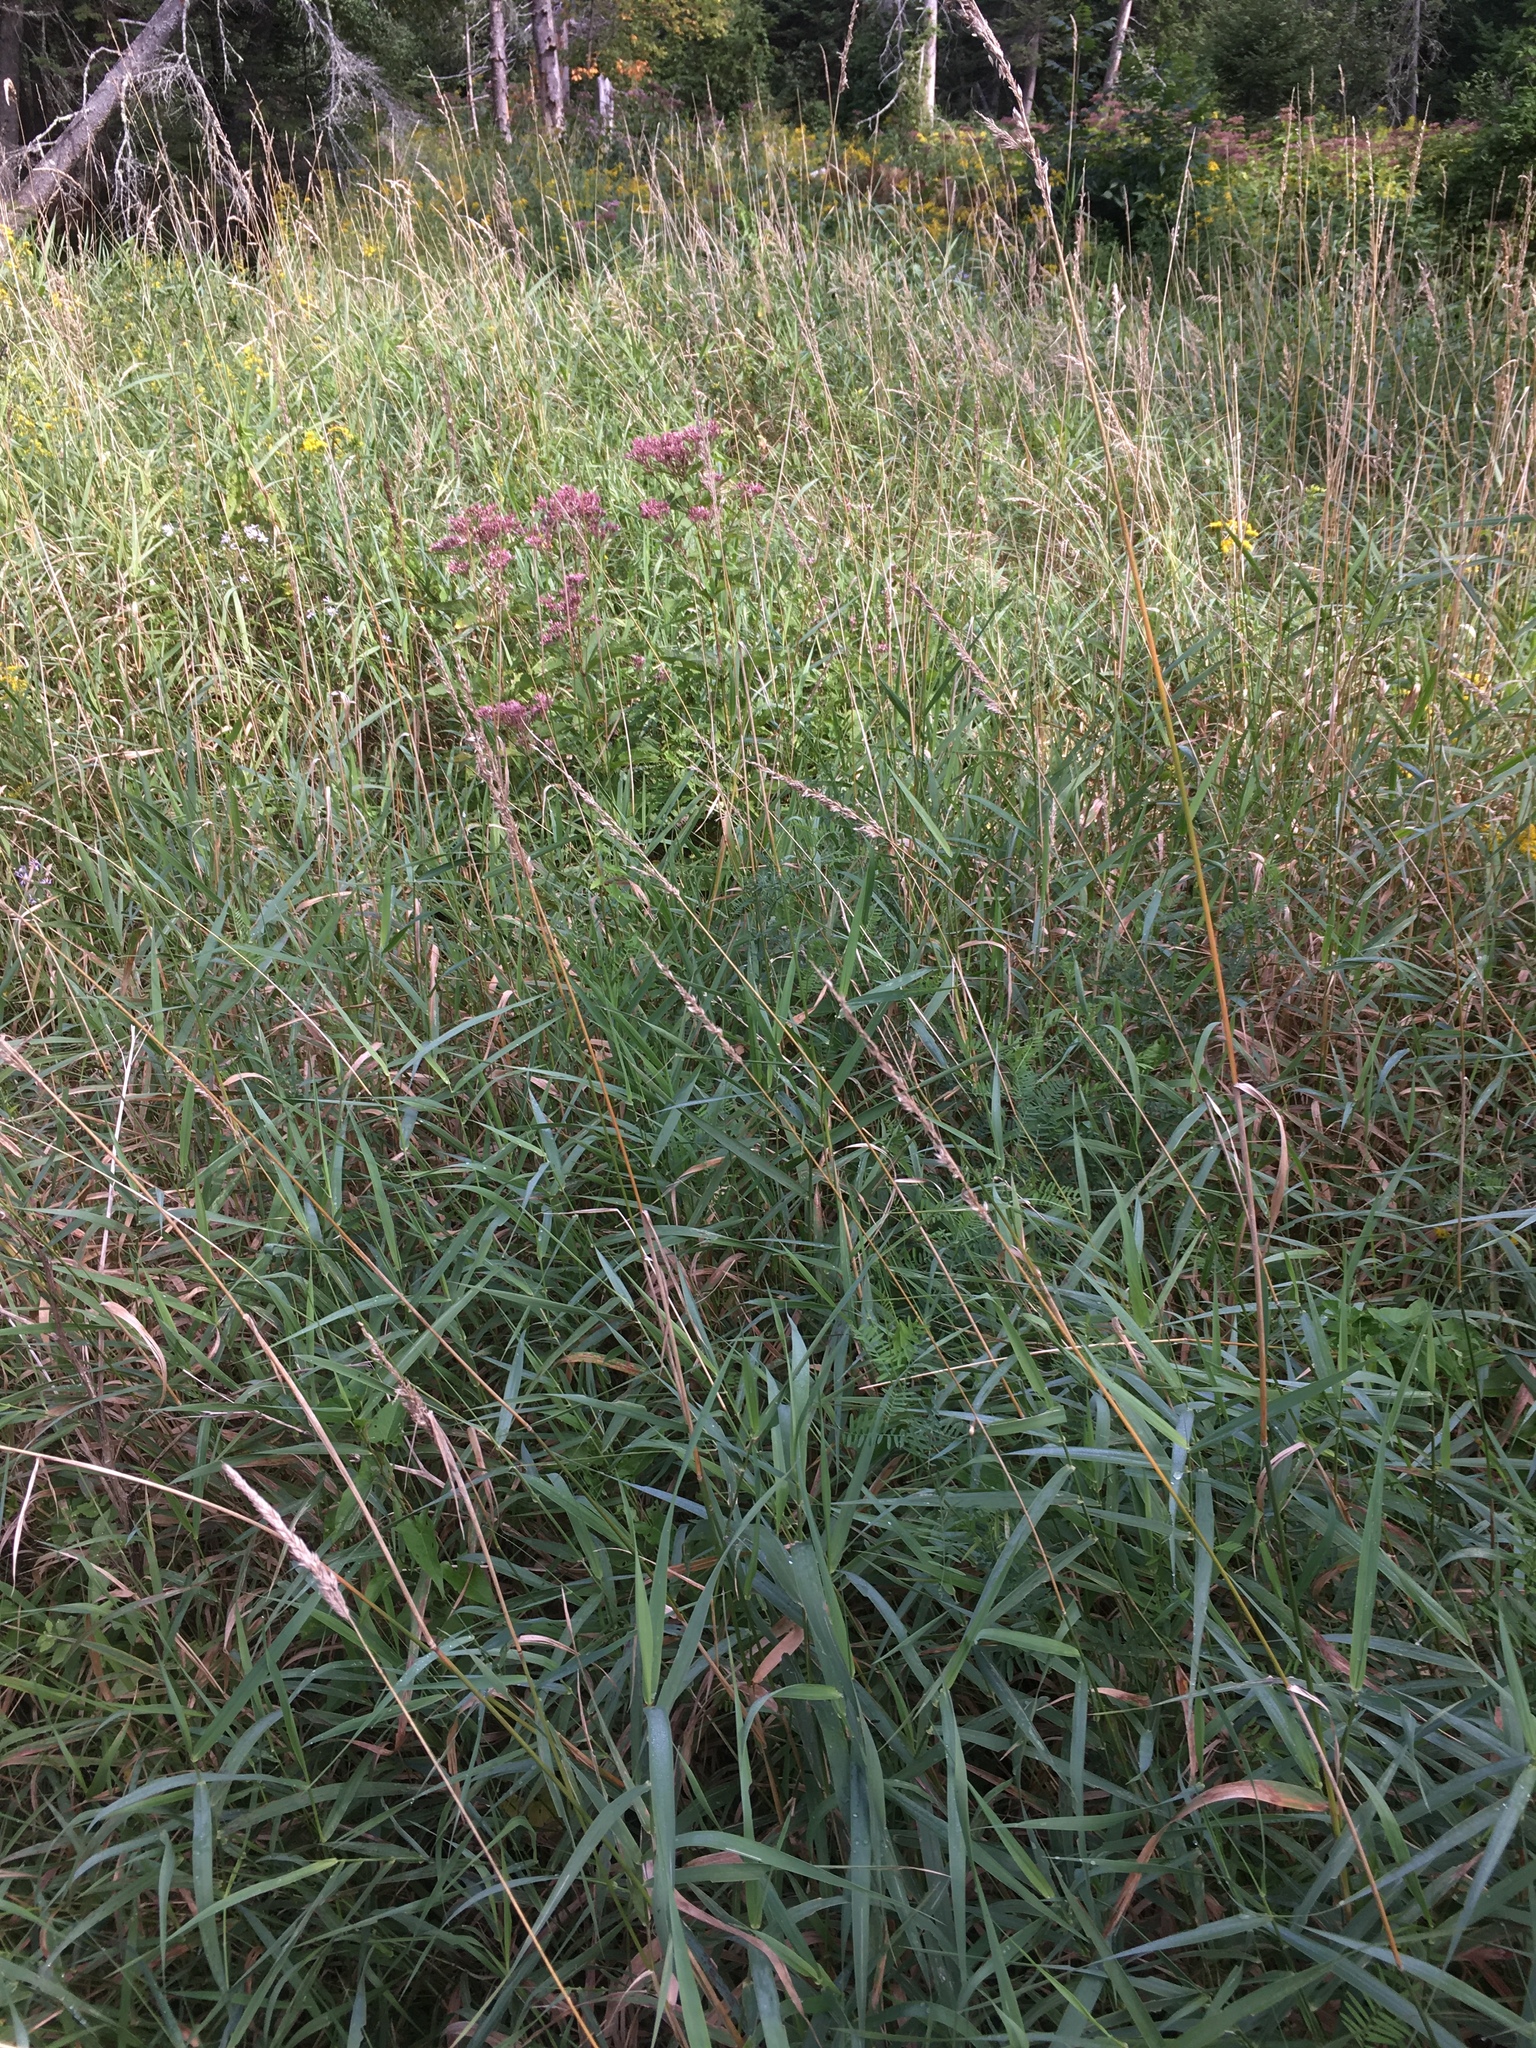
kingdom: Plantae
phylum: Tracheophyta
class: Liliopsida
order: Poales
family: Poaceae
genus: Phalaris
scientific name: Phalaris arundinacea
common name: Reed canary-grass
